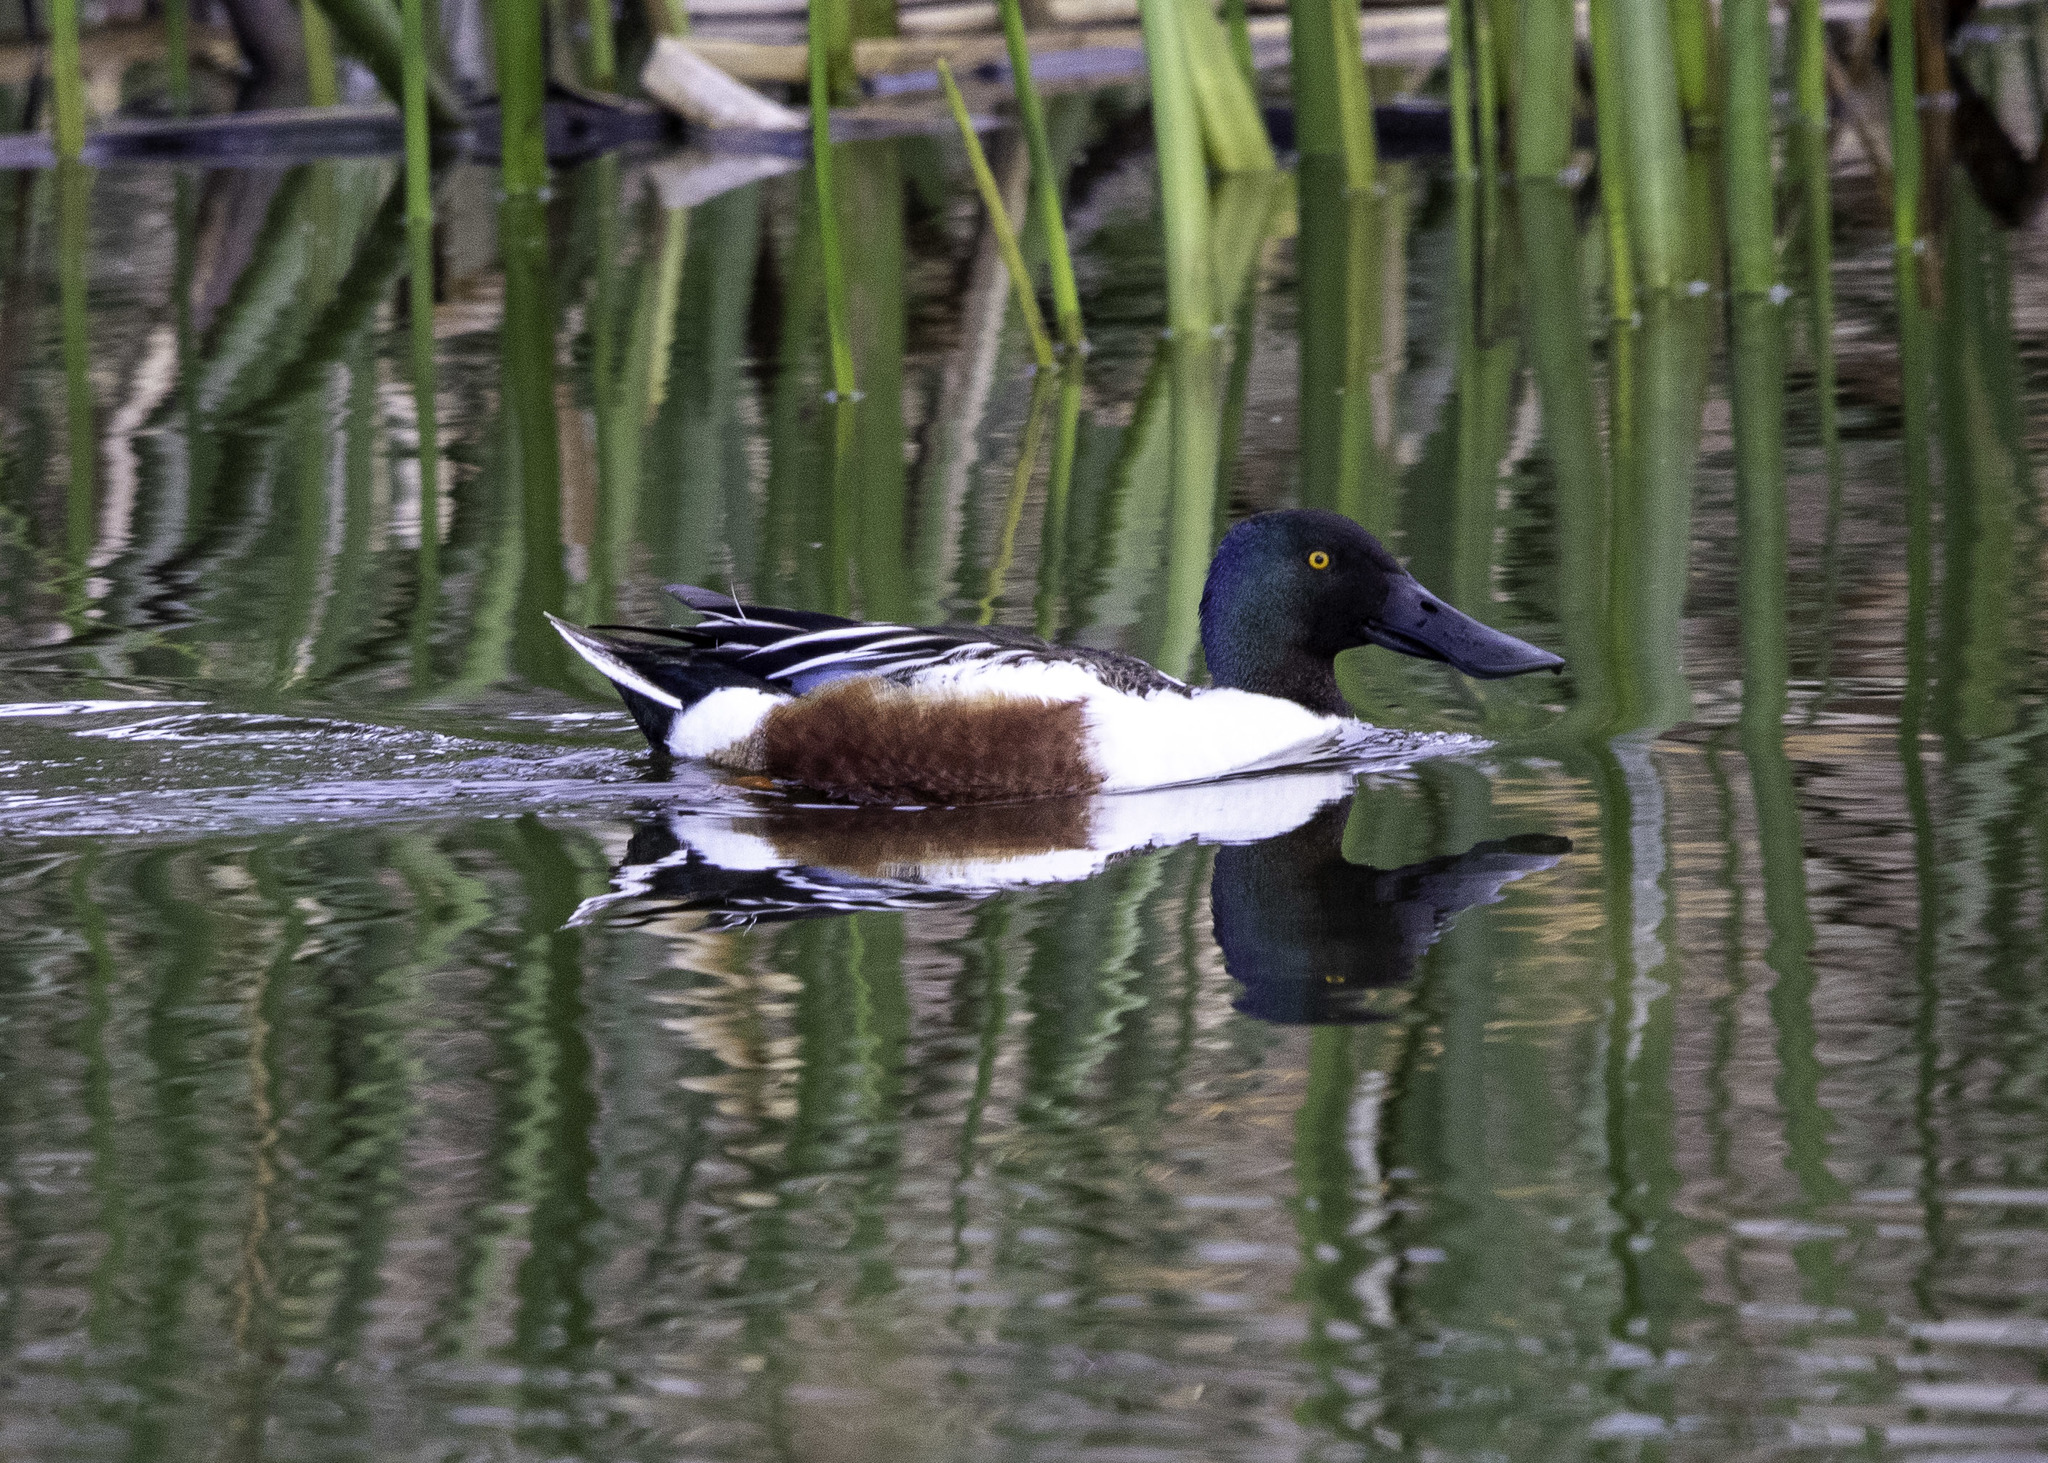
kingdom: Animalia
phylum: Chordata
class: Aves
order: Anseriformes
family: Anatidae
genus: Spatula
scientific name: Spatula clypeata
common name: Northern shoveler
